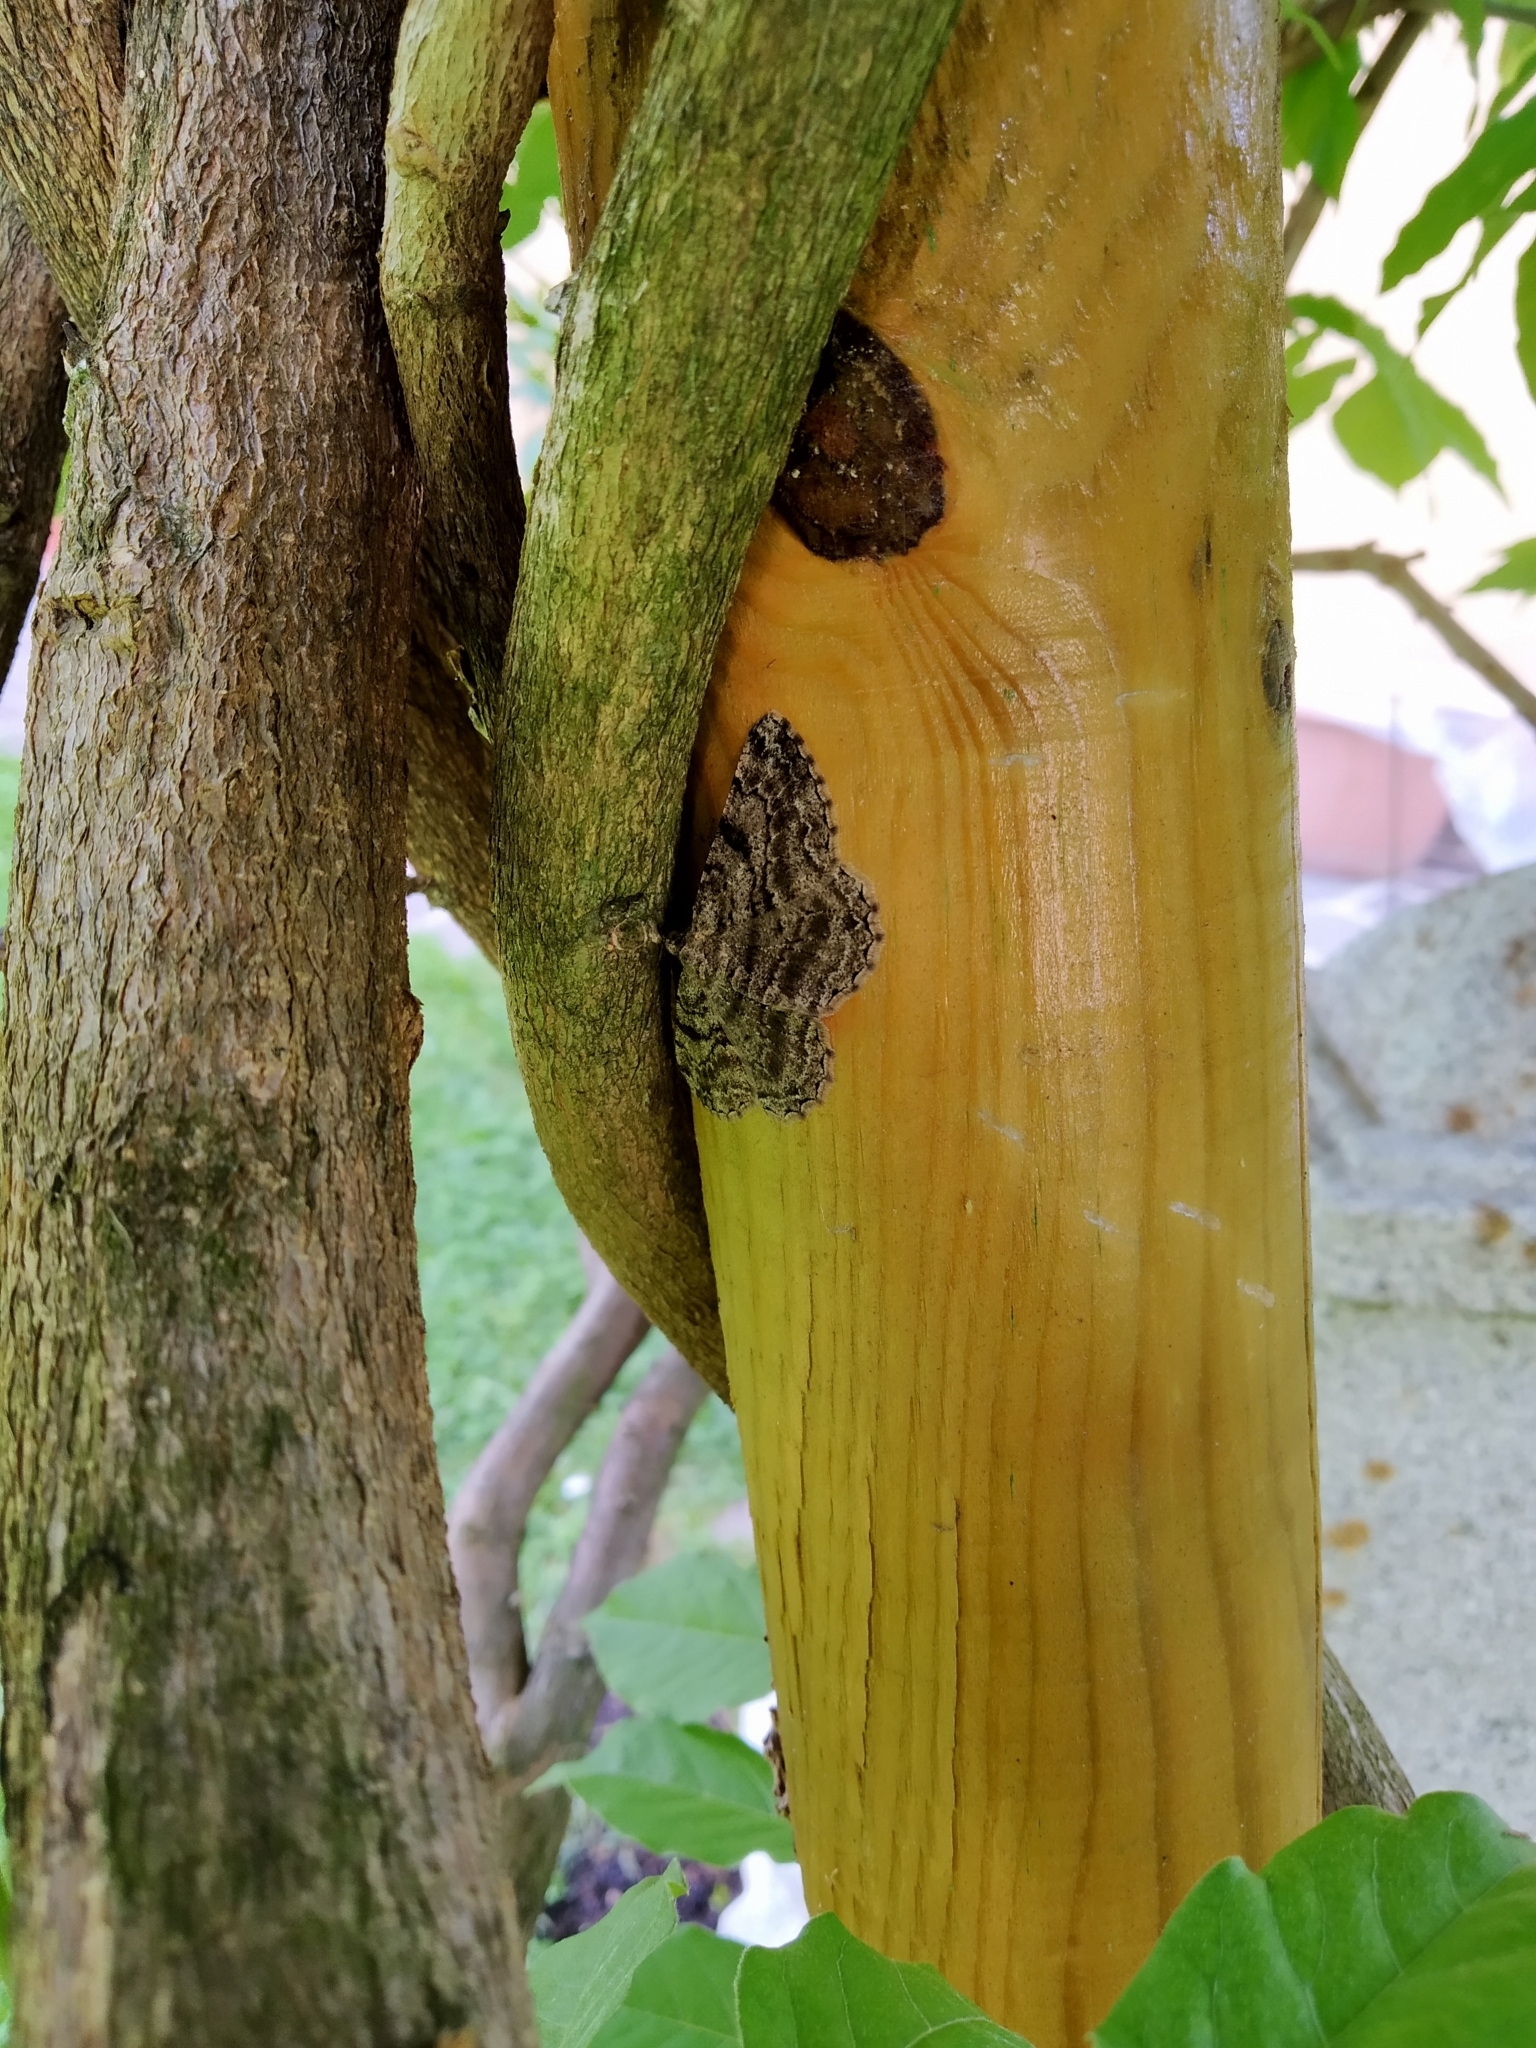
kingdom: Animalia
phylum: Arthropoda
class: Insecta
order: Lepidoptera
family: Geometridae
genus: Peribatodes
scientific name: Peribatodes rhomboidaria
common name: Willow beauty
